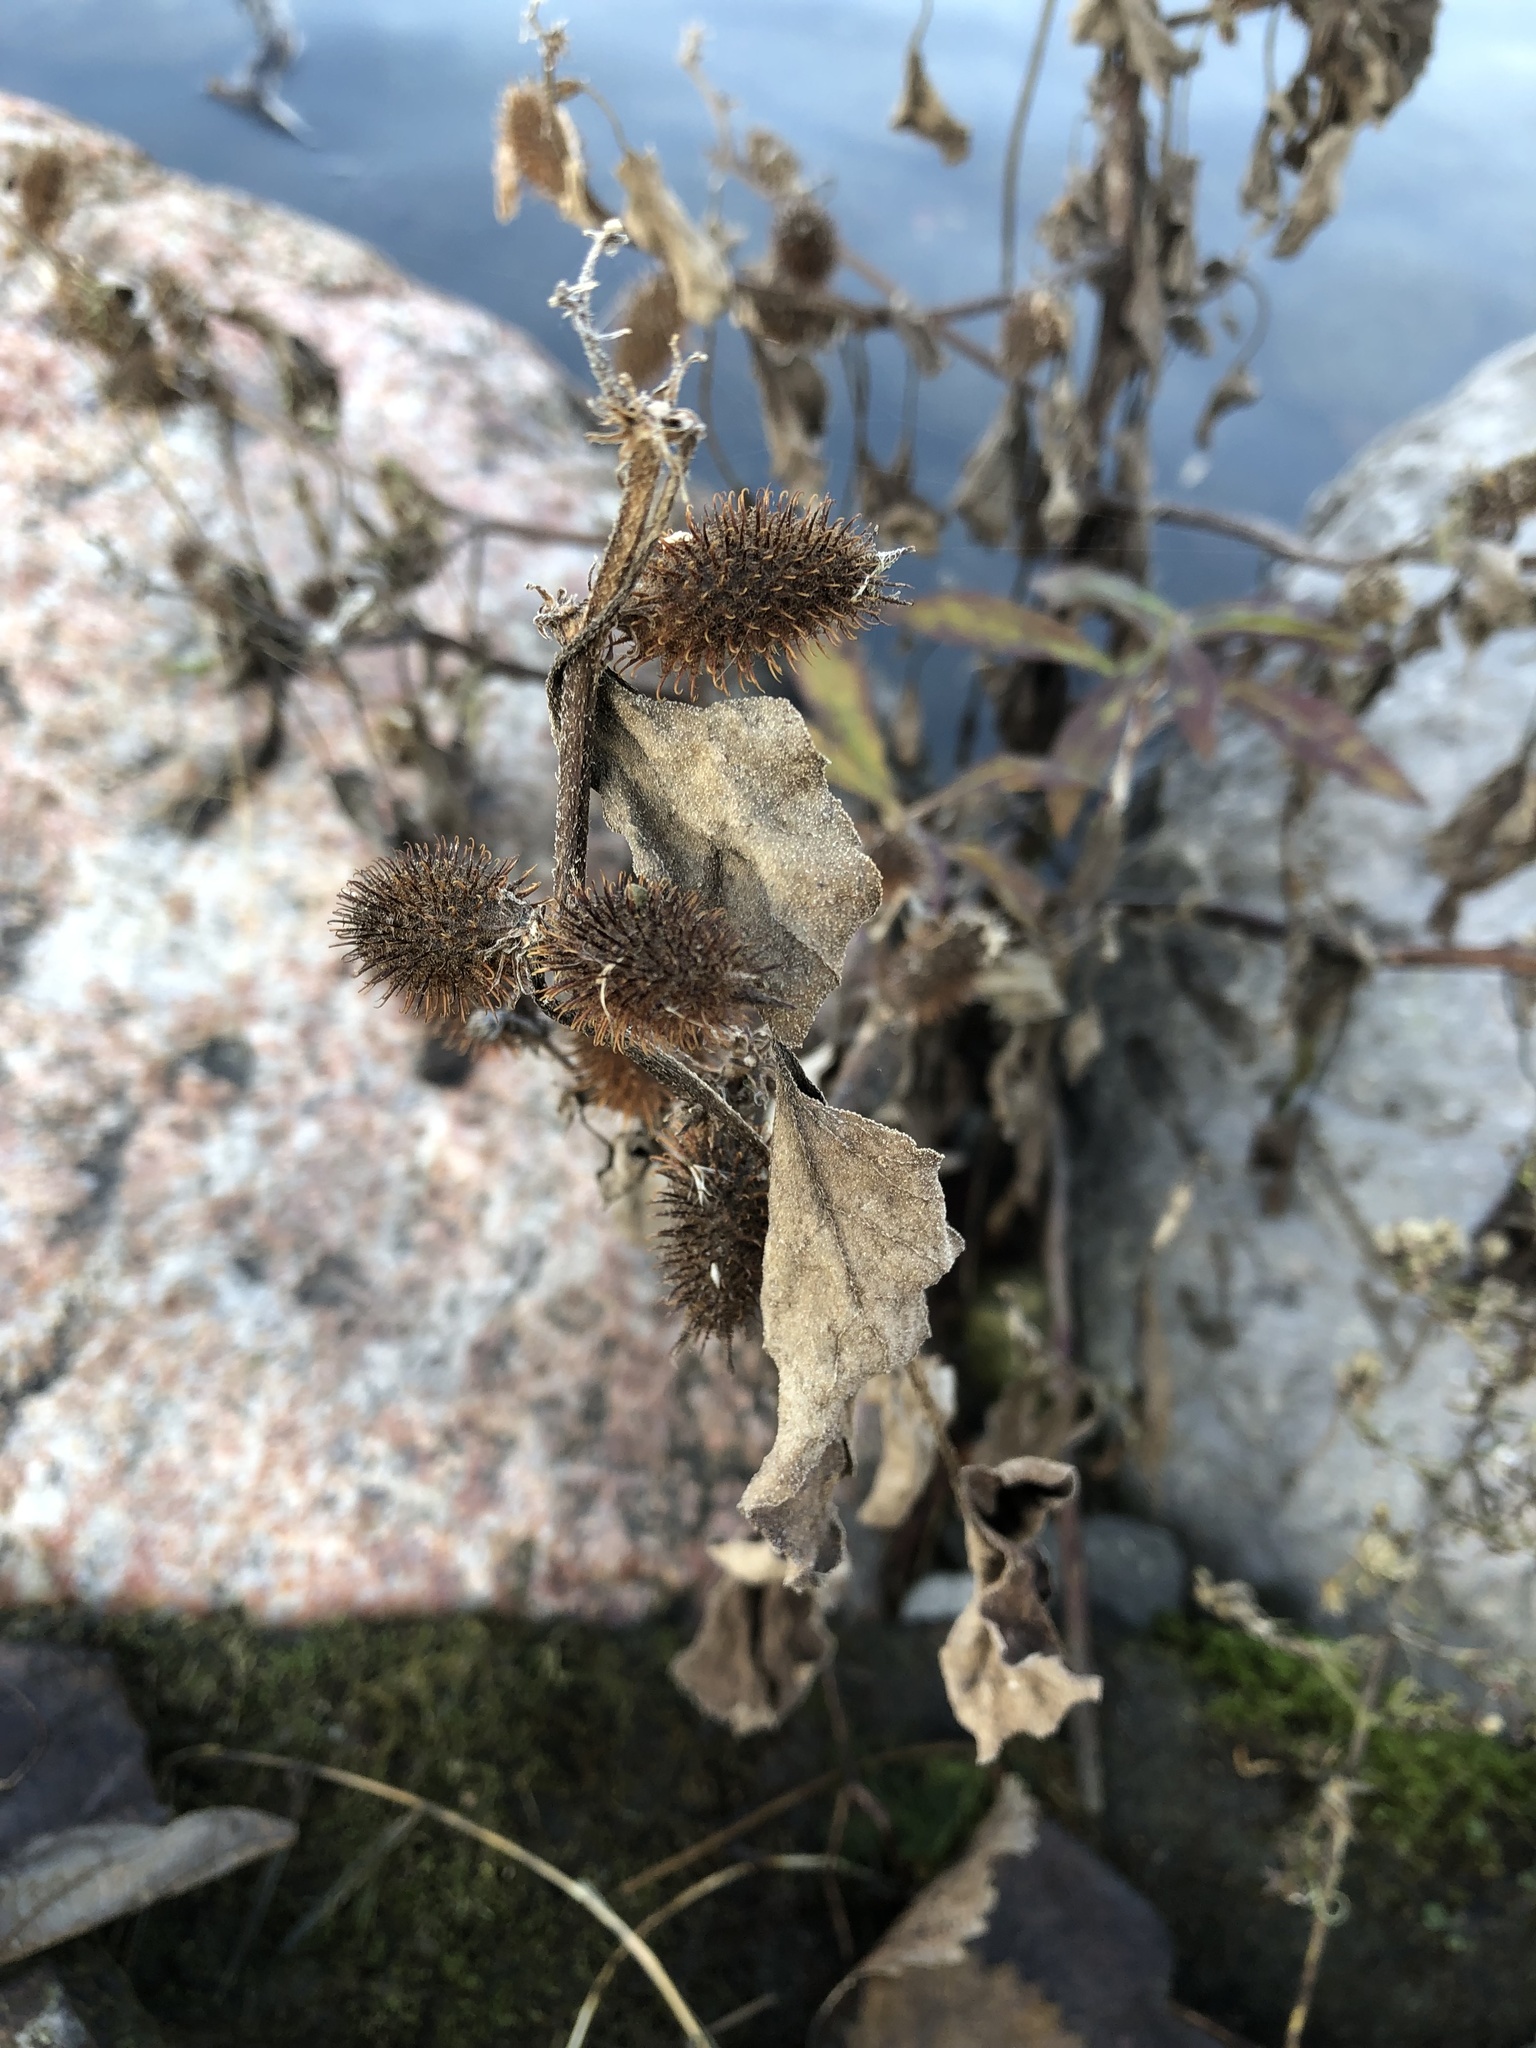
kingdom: Plantae
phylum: Tracheophyta
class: Magnoliopsida
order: Asterales
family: Asteraceae
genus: Xanthium
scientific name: Xanthium strumarium
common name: Rough cocklebur
